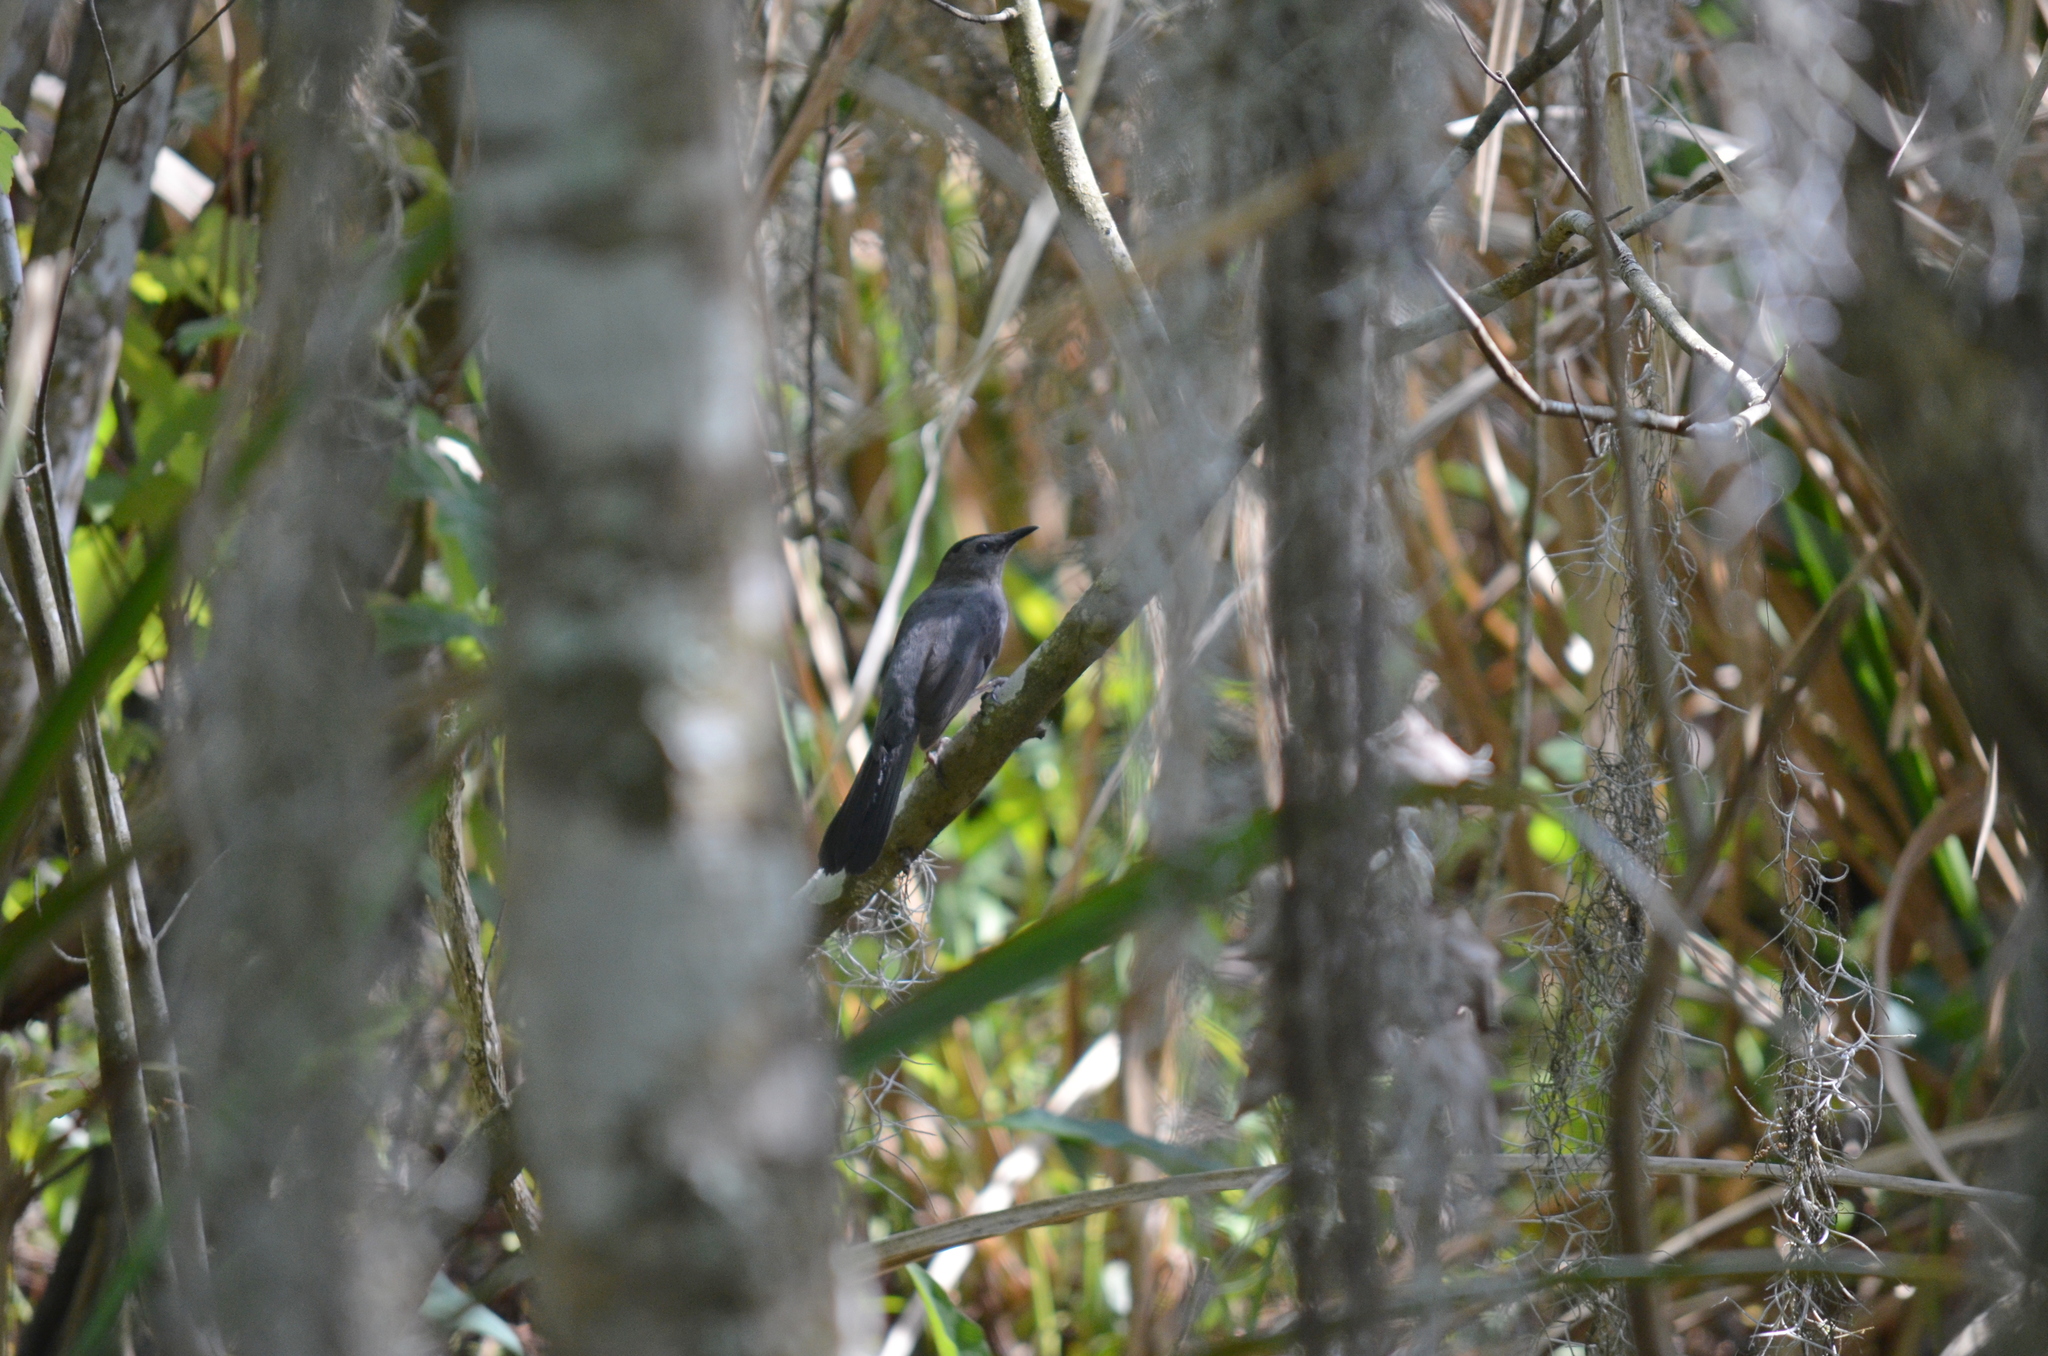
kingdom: Animalia
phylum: Chordata
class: Aves
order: Passeriformes
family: Mimidae
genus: Dumetella
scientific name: Dumetella carolinensis
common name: Gray catbird
